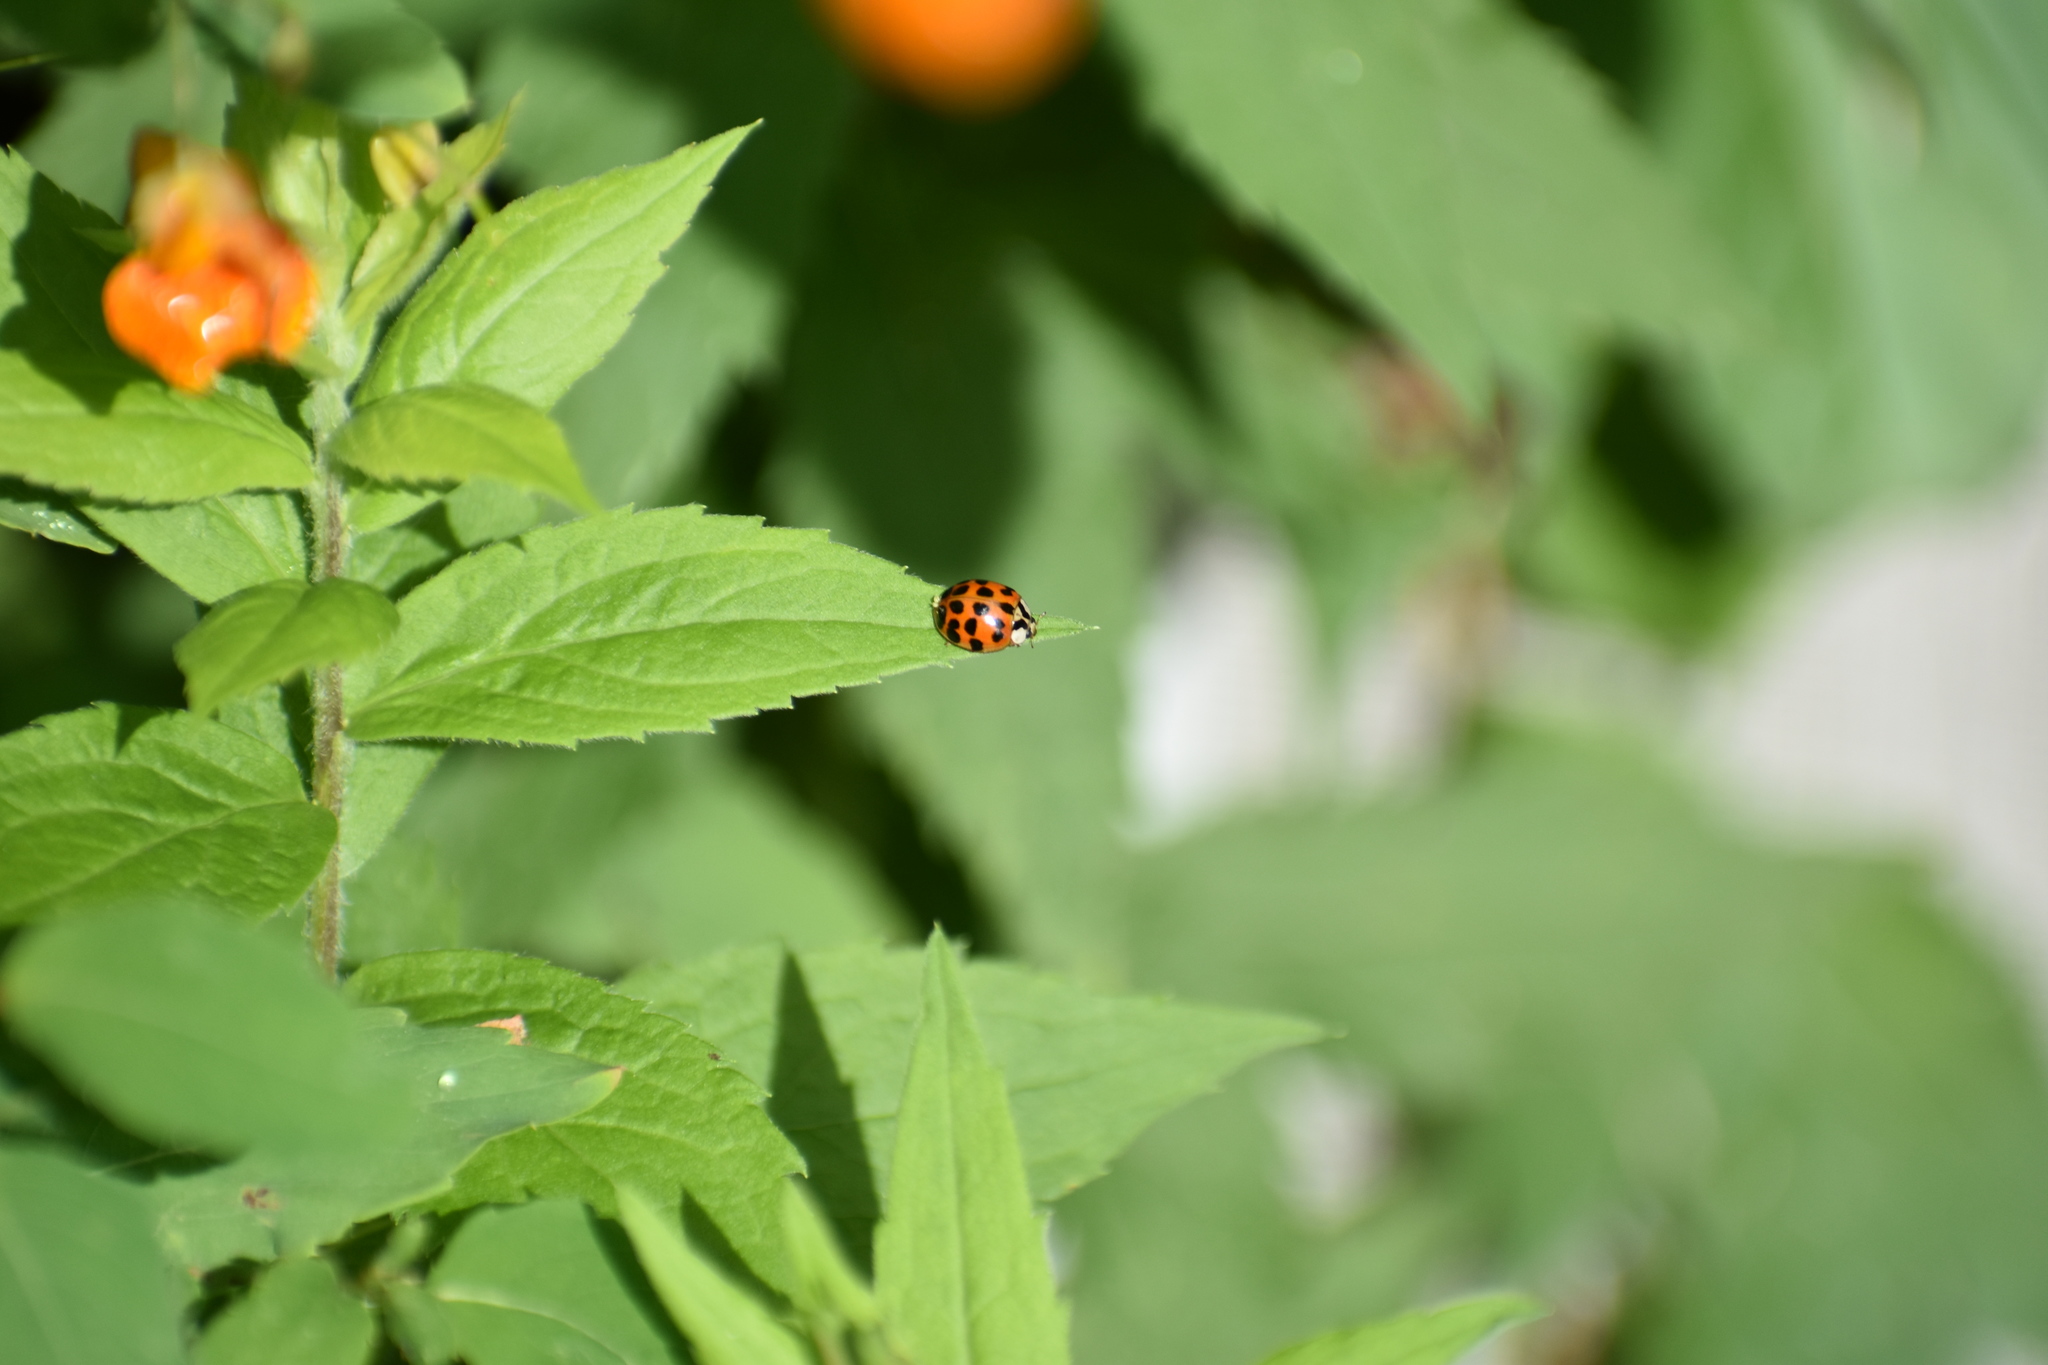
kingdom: Animalia
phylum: Arthropoda
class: Insecta
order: Coleoptera
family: Coccinellidae
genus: Harmonia
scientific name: Harmonia axyridis
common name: Harlequin ladybird
